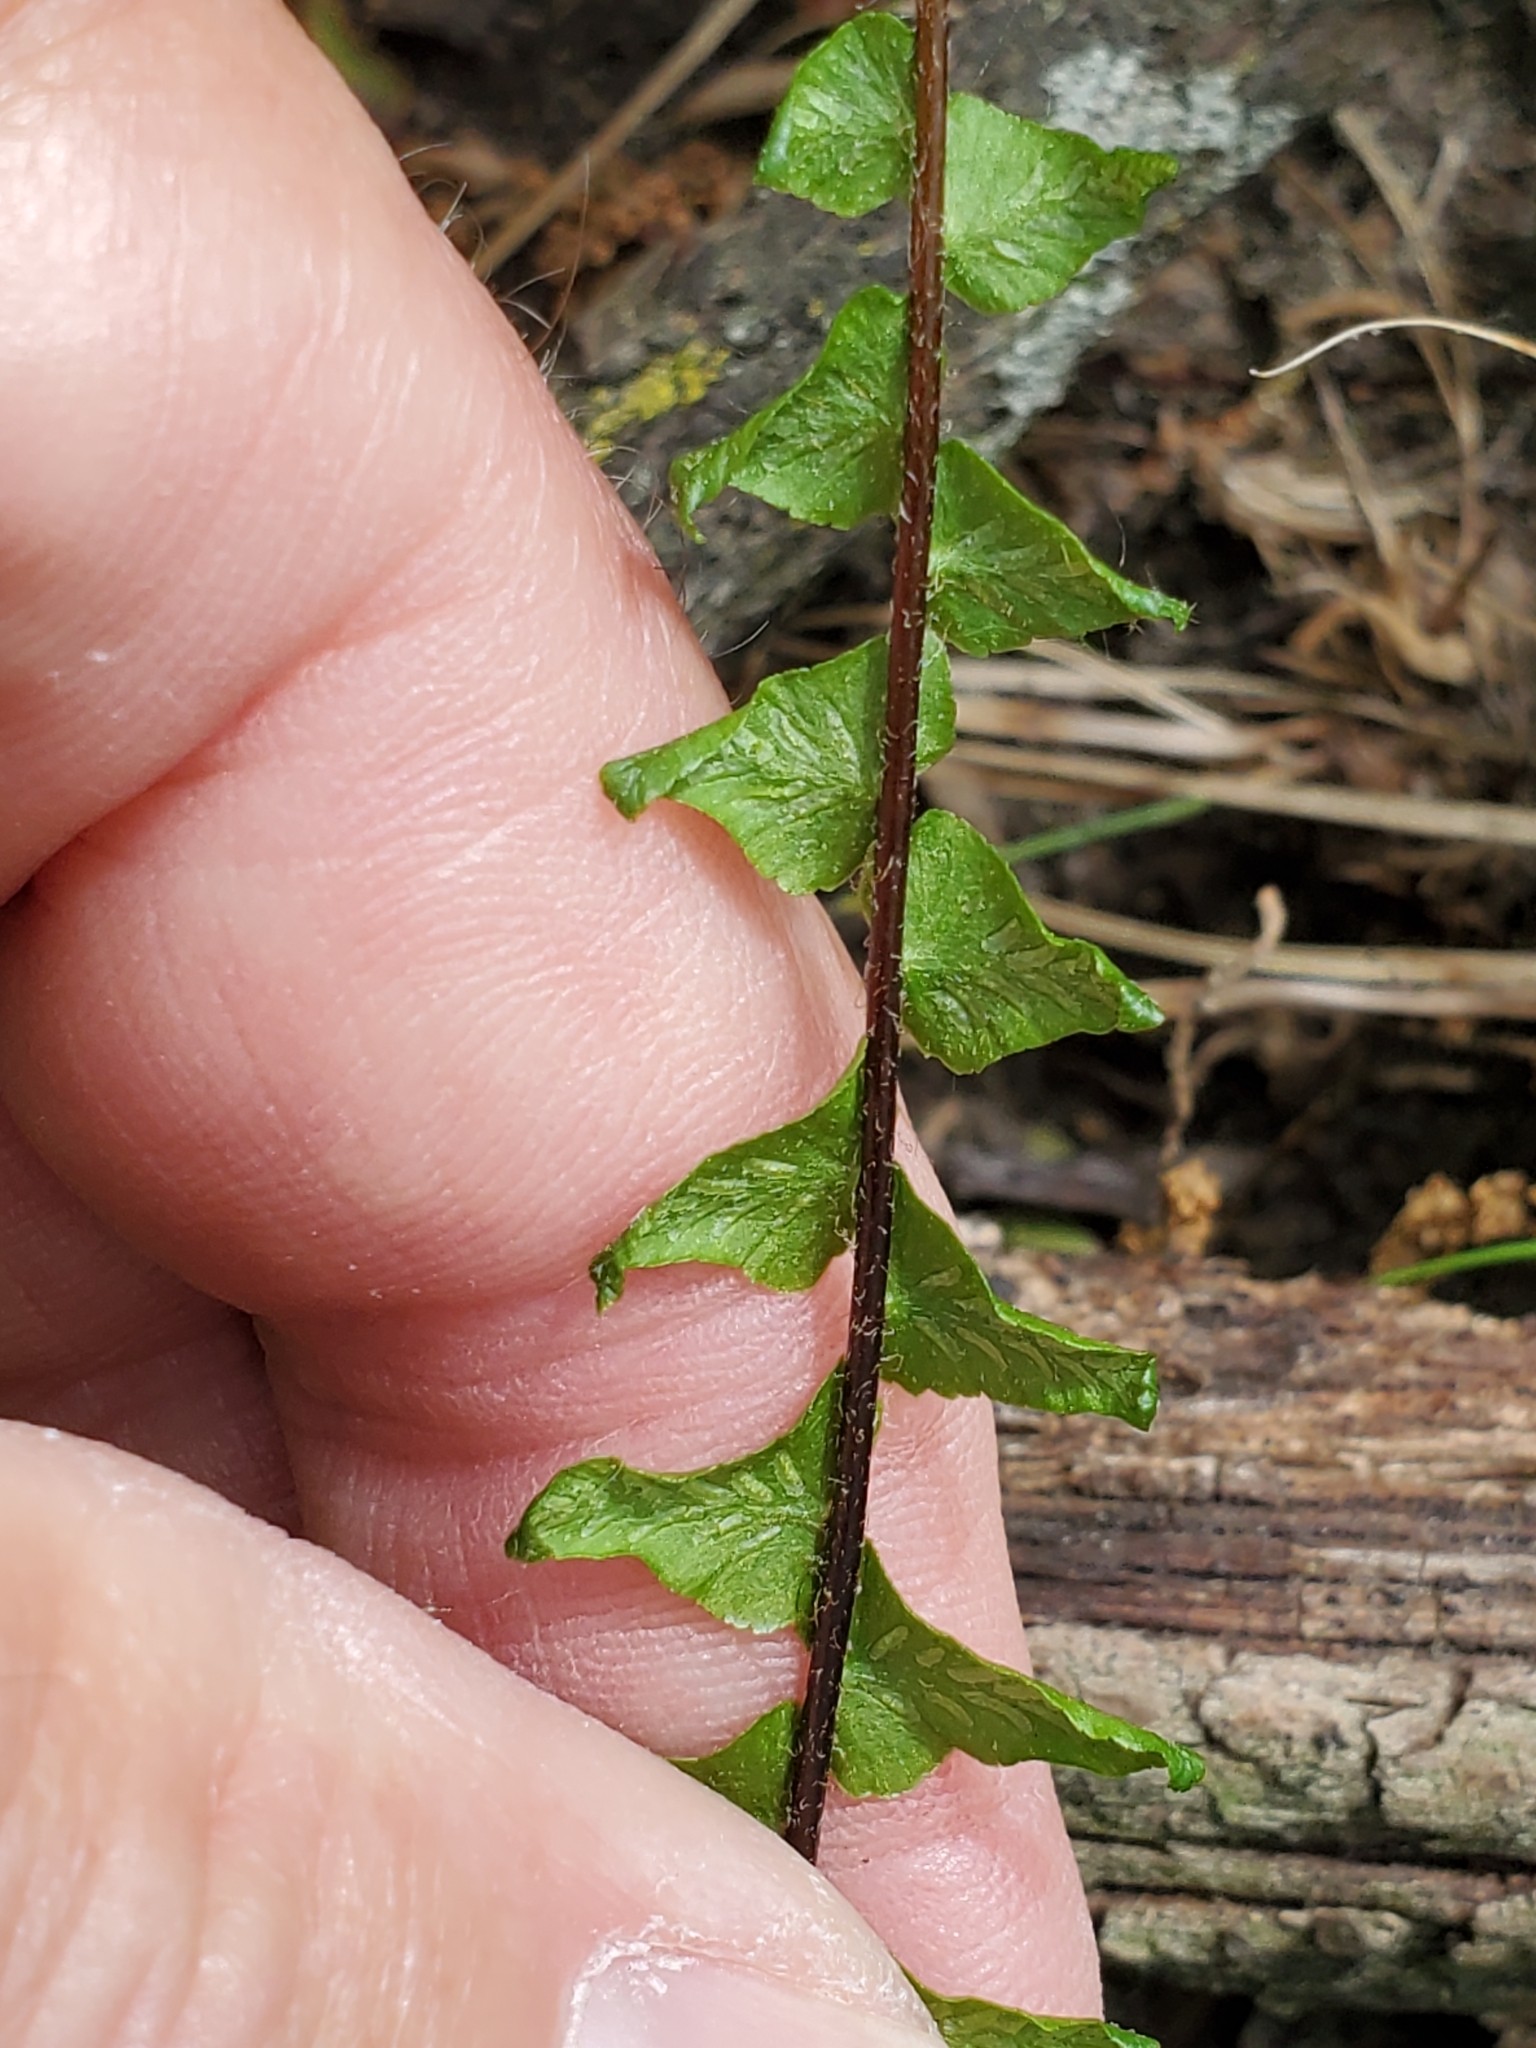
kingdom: Plantae
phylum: Tracheophyta
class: Polypodiopsida
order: Polypodiales
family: Aspleniaceae
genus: Asplenium
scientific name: Asplenium platyneuron
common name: Ebony spleenwort
